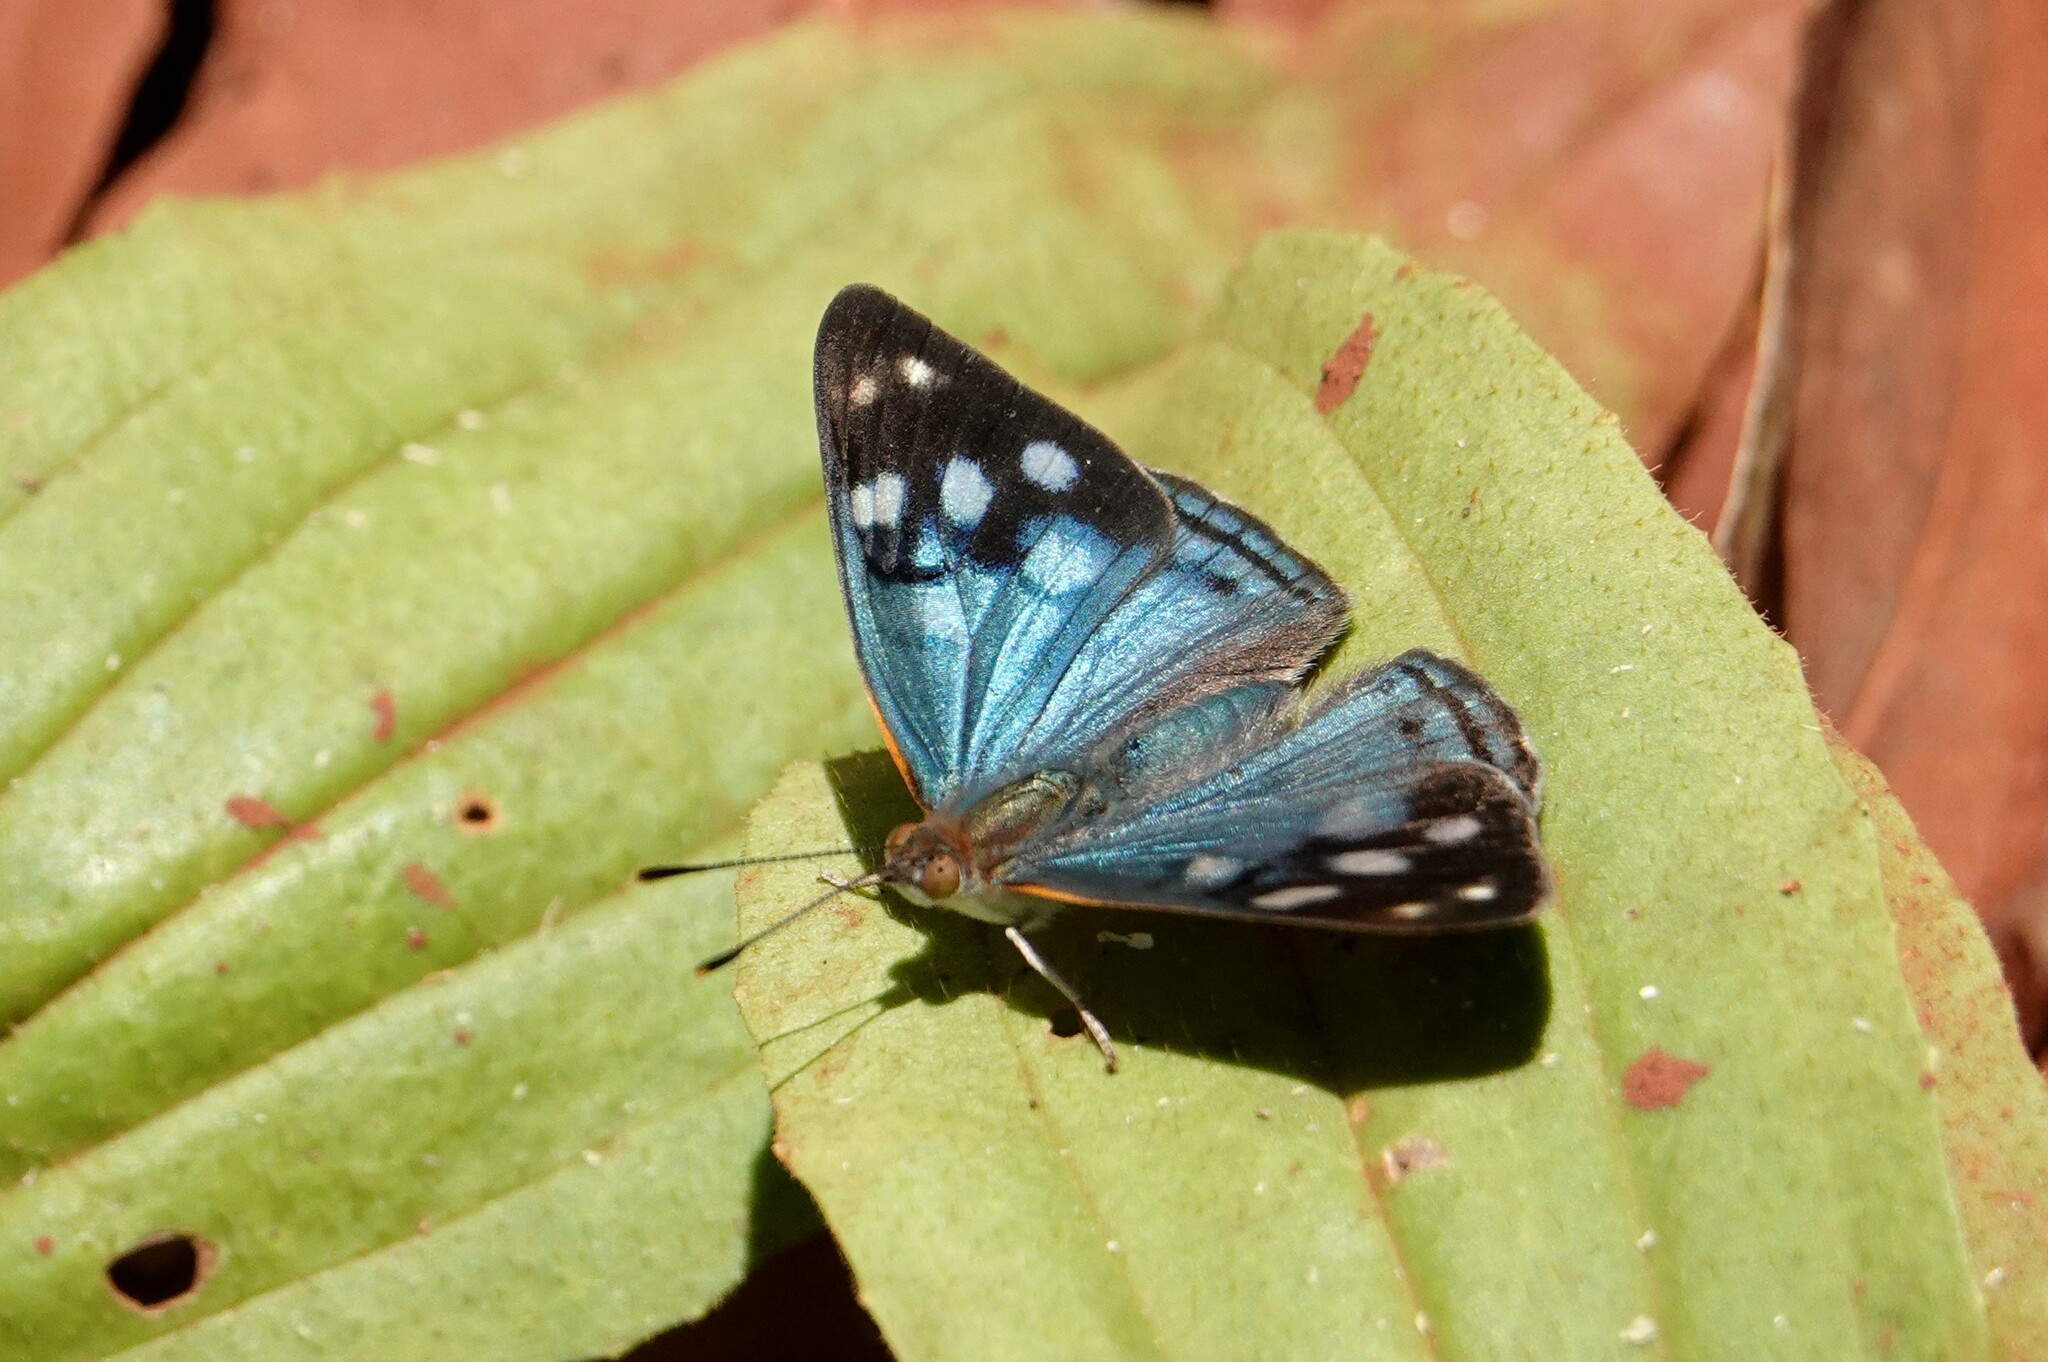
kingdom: Animalia
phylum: Arthropoda
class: Insecta
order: Lepidoptera
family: Nymphalidae
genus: Dynamine
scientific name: Dynamine tithia
